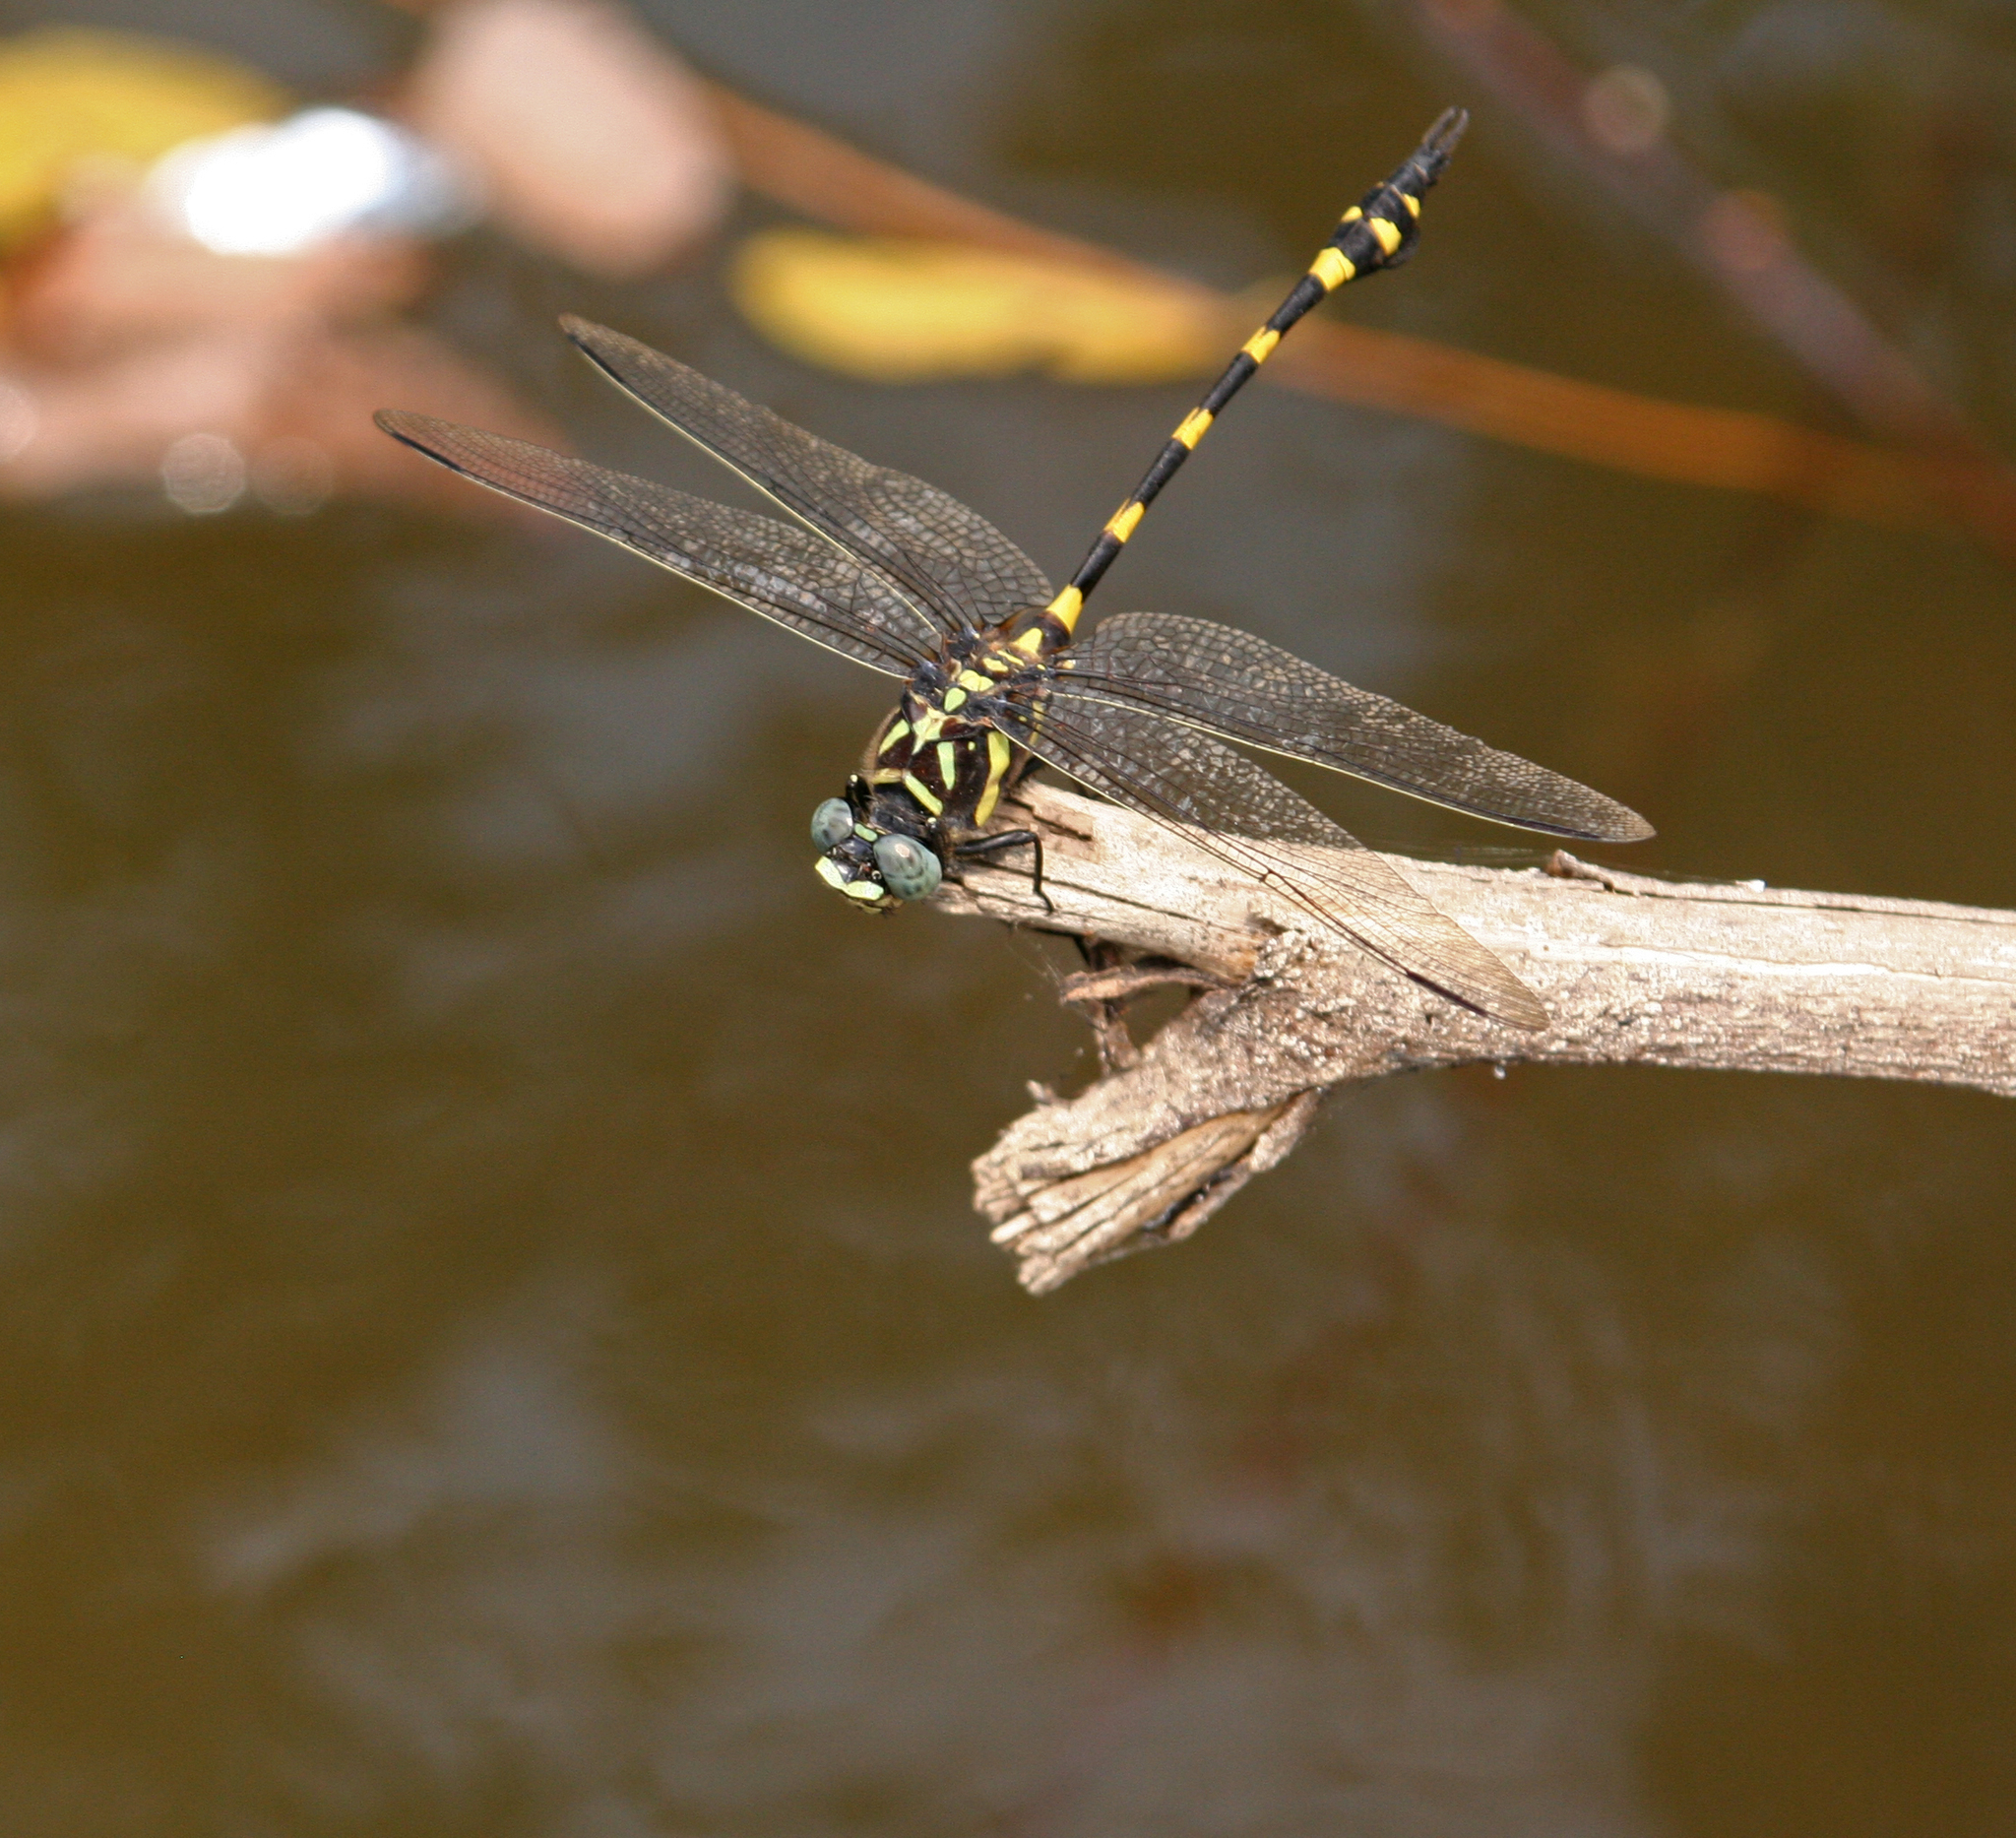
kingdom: Animalia
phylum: Arthropoda
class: Insecta
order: Odonata
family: Gomphidae
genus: Ictinogomphus
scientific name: Ictinogomphus decoratus
